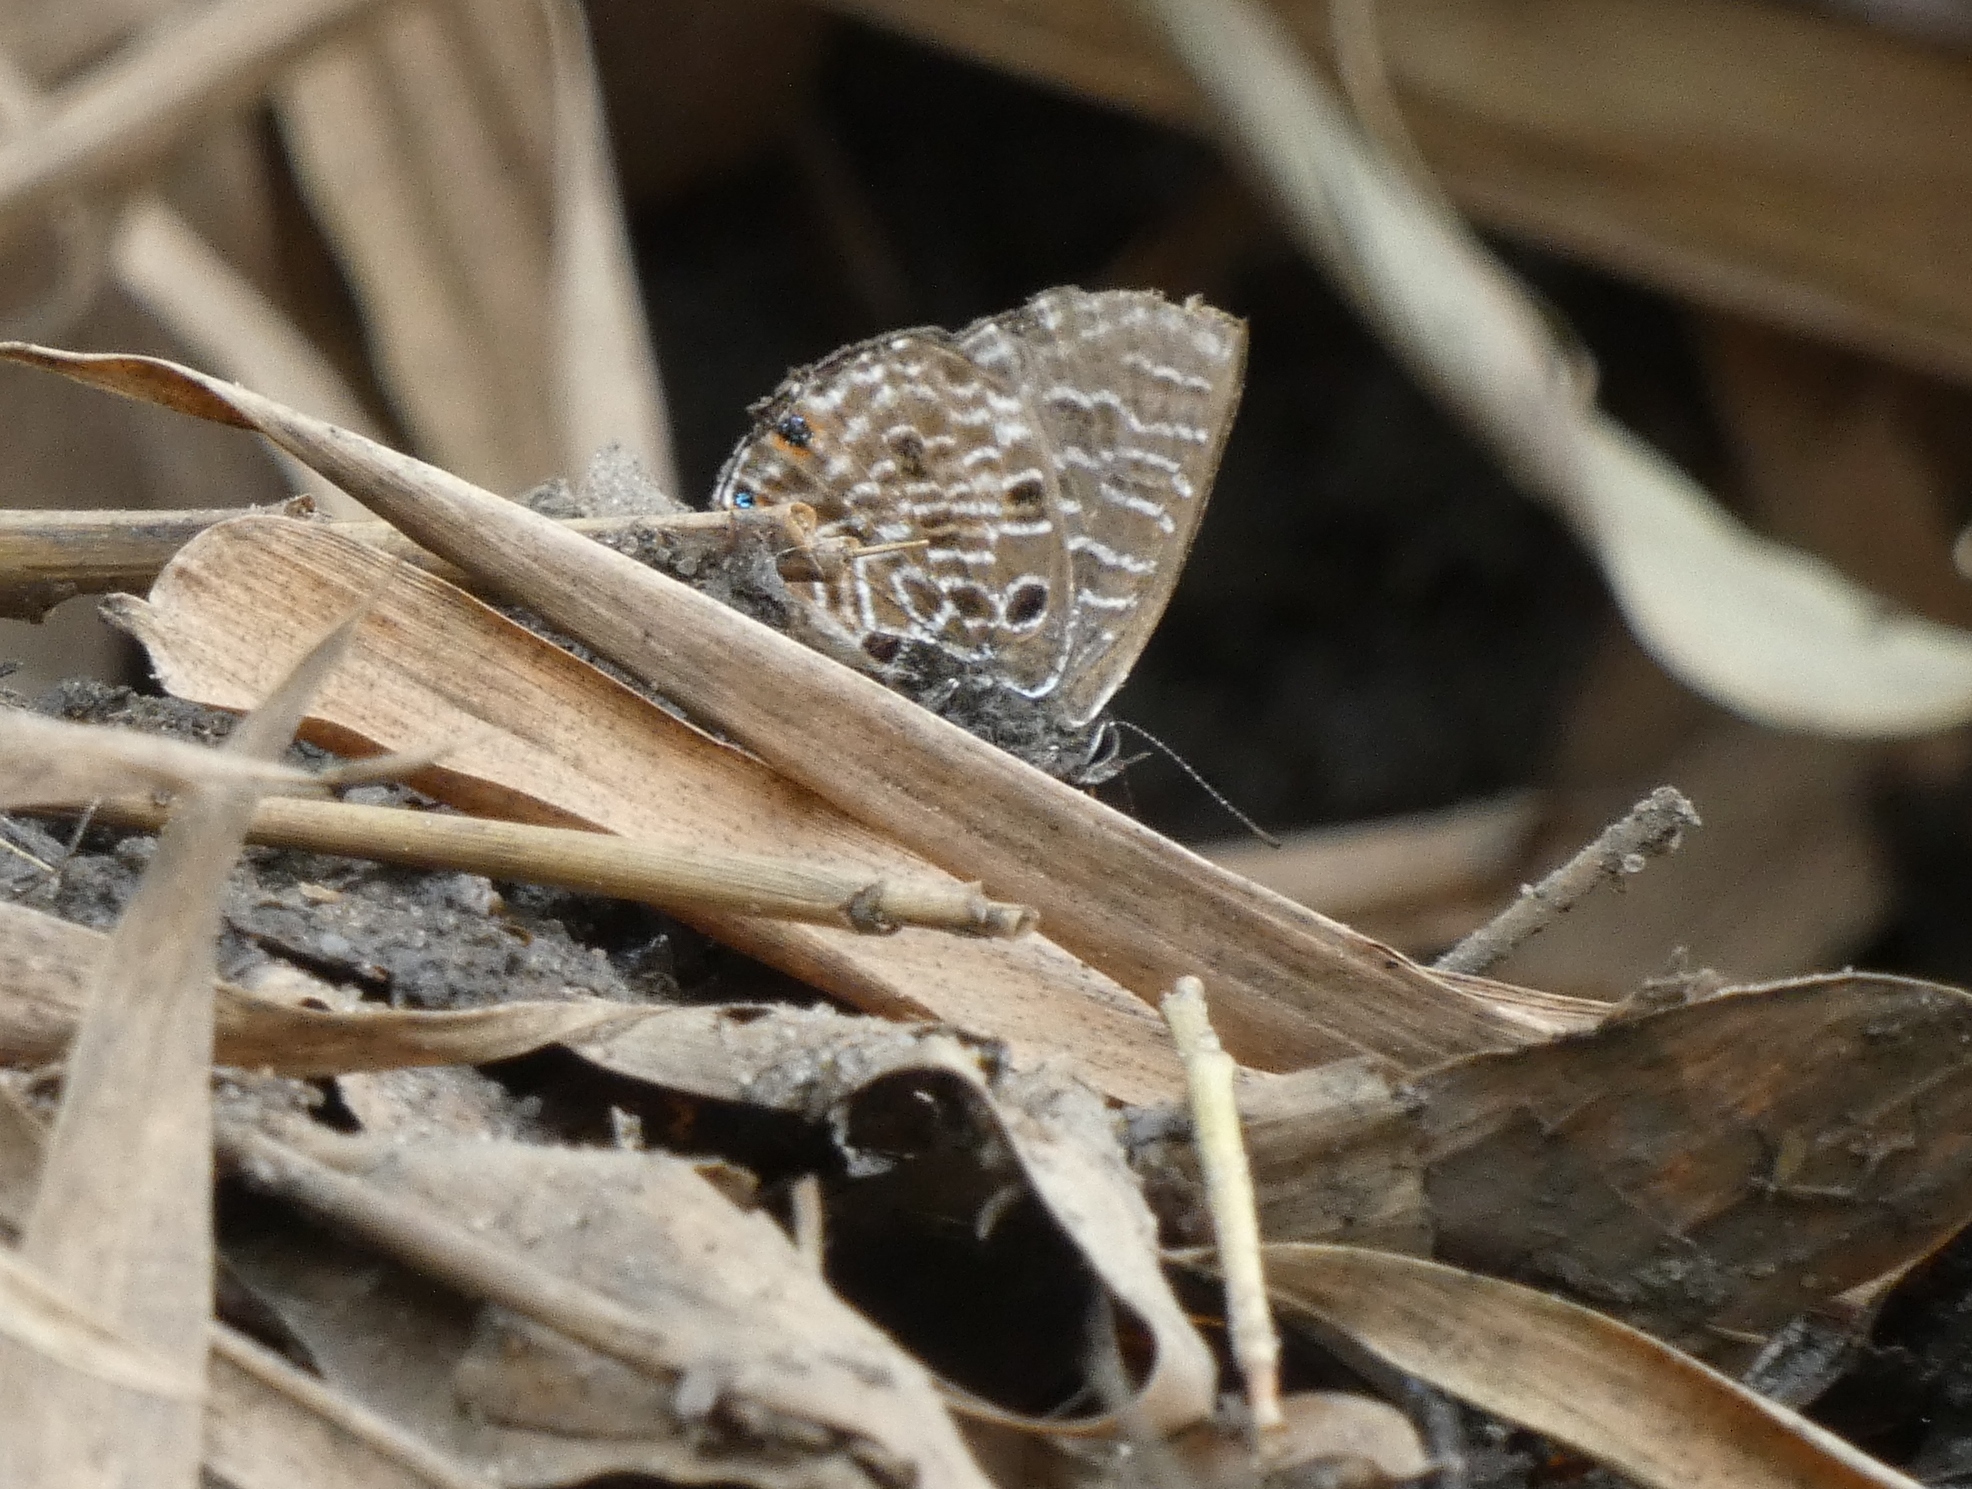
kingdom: Animalia
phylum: Arthropoda
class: Insecta
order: Lepidoptera
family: Lycaenidae
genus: Anthene
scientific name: Anthene larydas
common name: Forest hairtail
